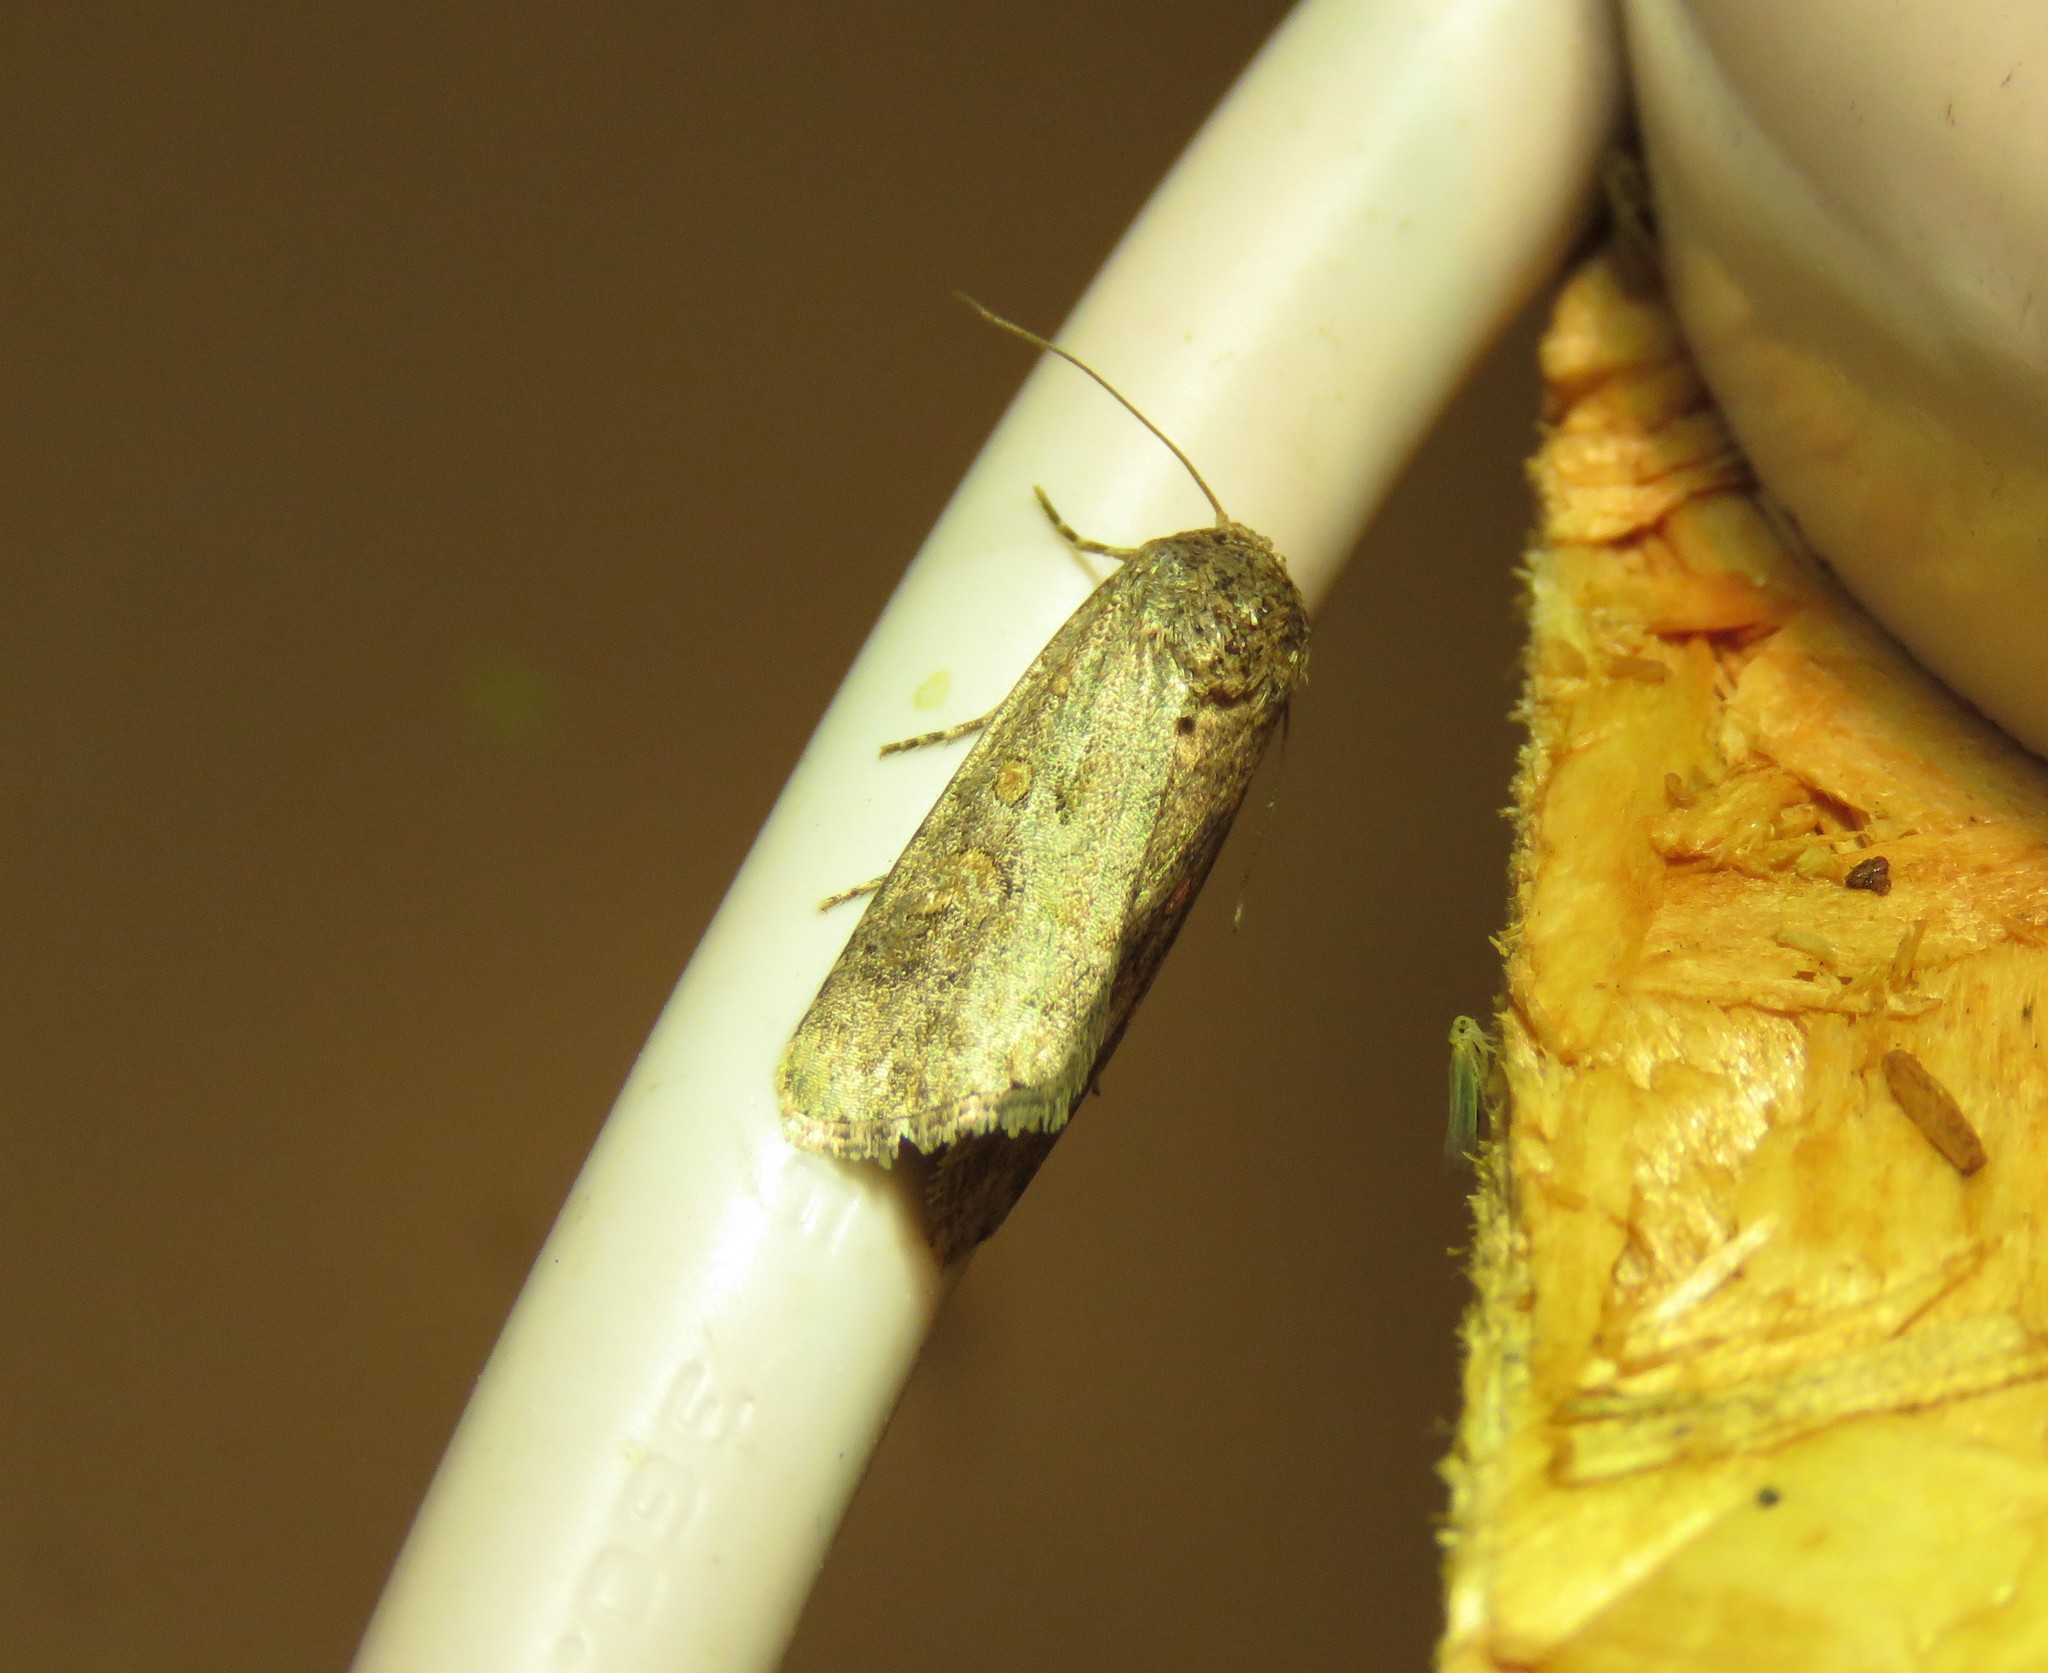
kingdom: Animalia
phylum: Arthropoda
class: Insecta
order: Lepidoptera
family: Noctuidae
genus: Spodoptera
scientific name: Spodoptera exigua
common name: Beet armyworm
